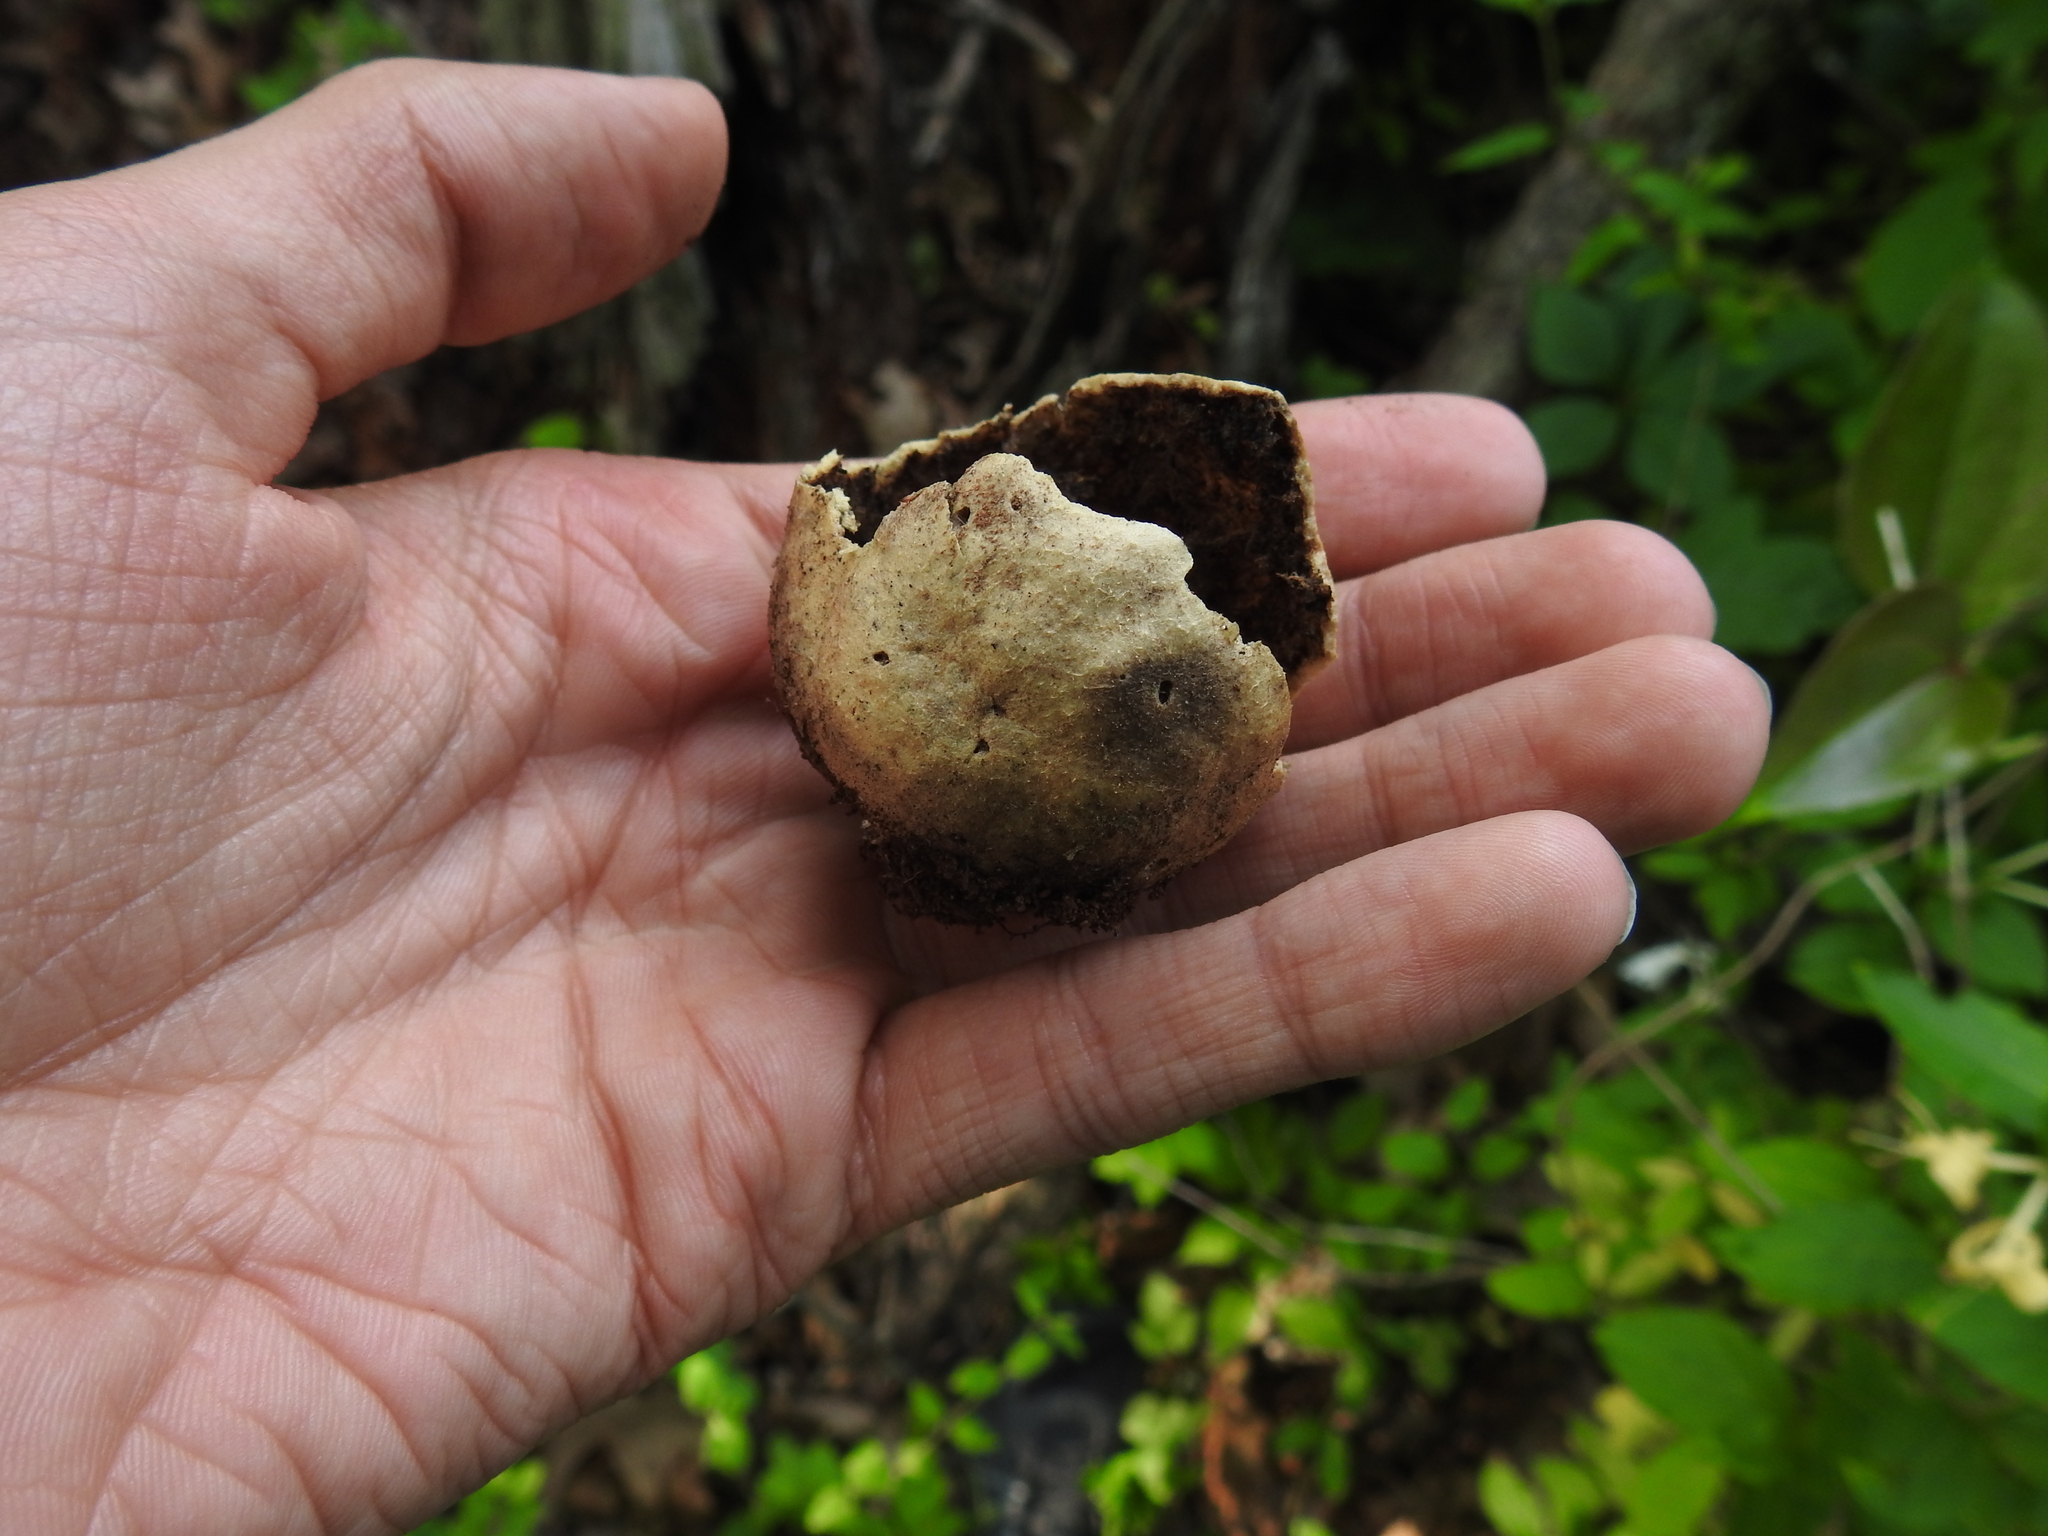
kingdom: Animalia
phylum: Arthropoda
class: Insecta
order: Hymenoptera
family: Cynipidae
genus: Amphibolips
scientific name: Amphibolips
